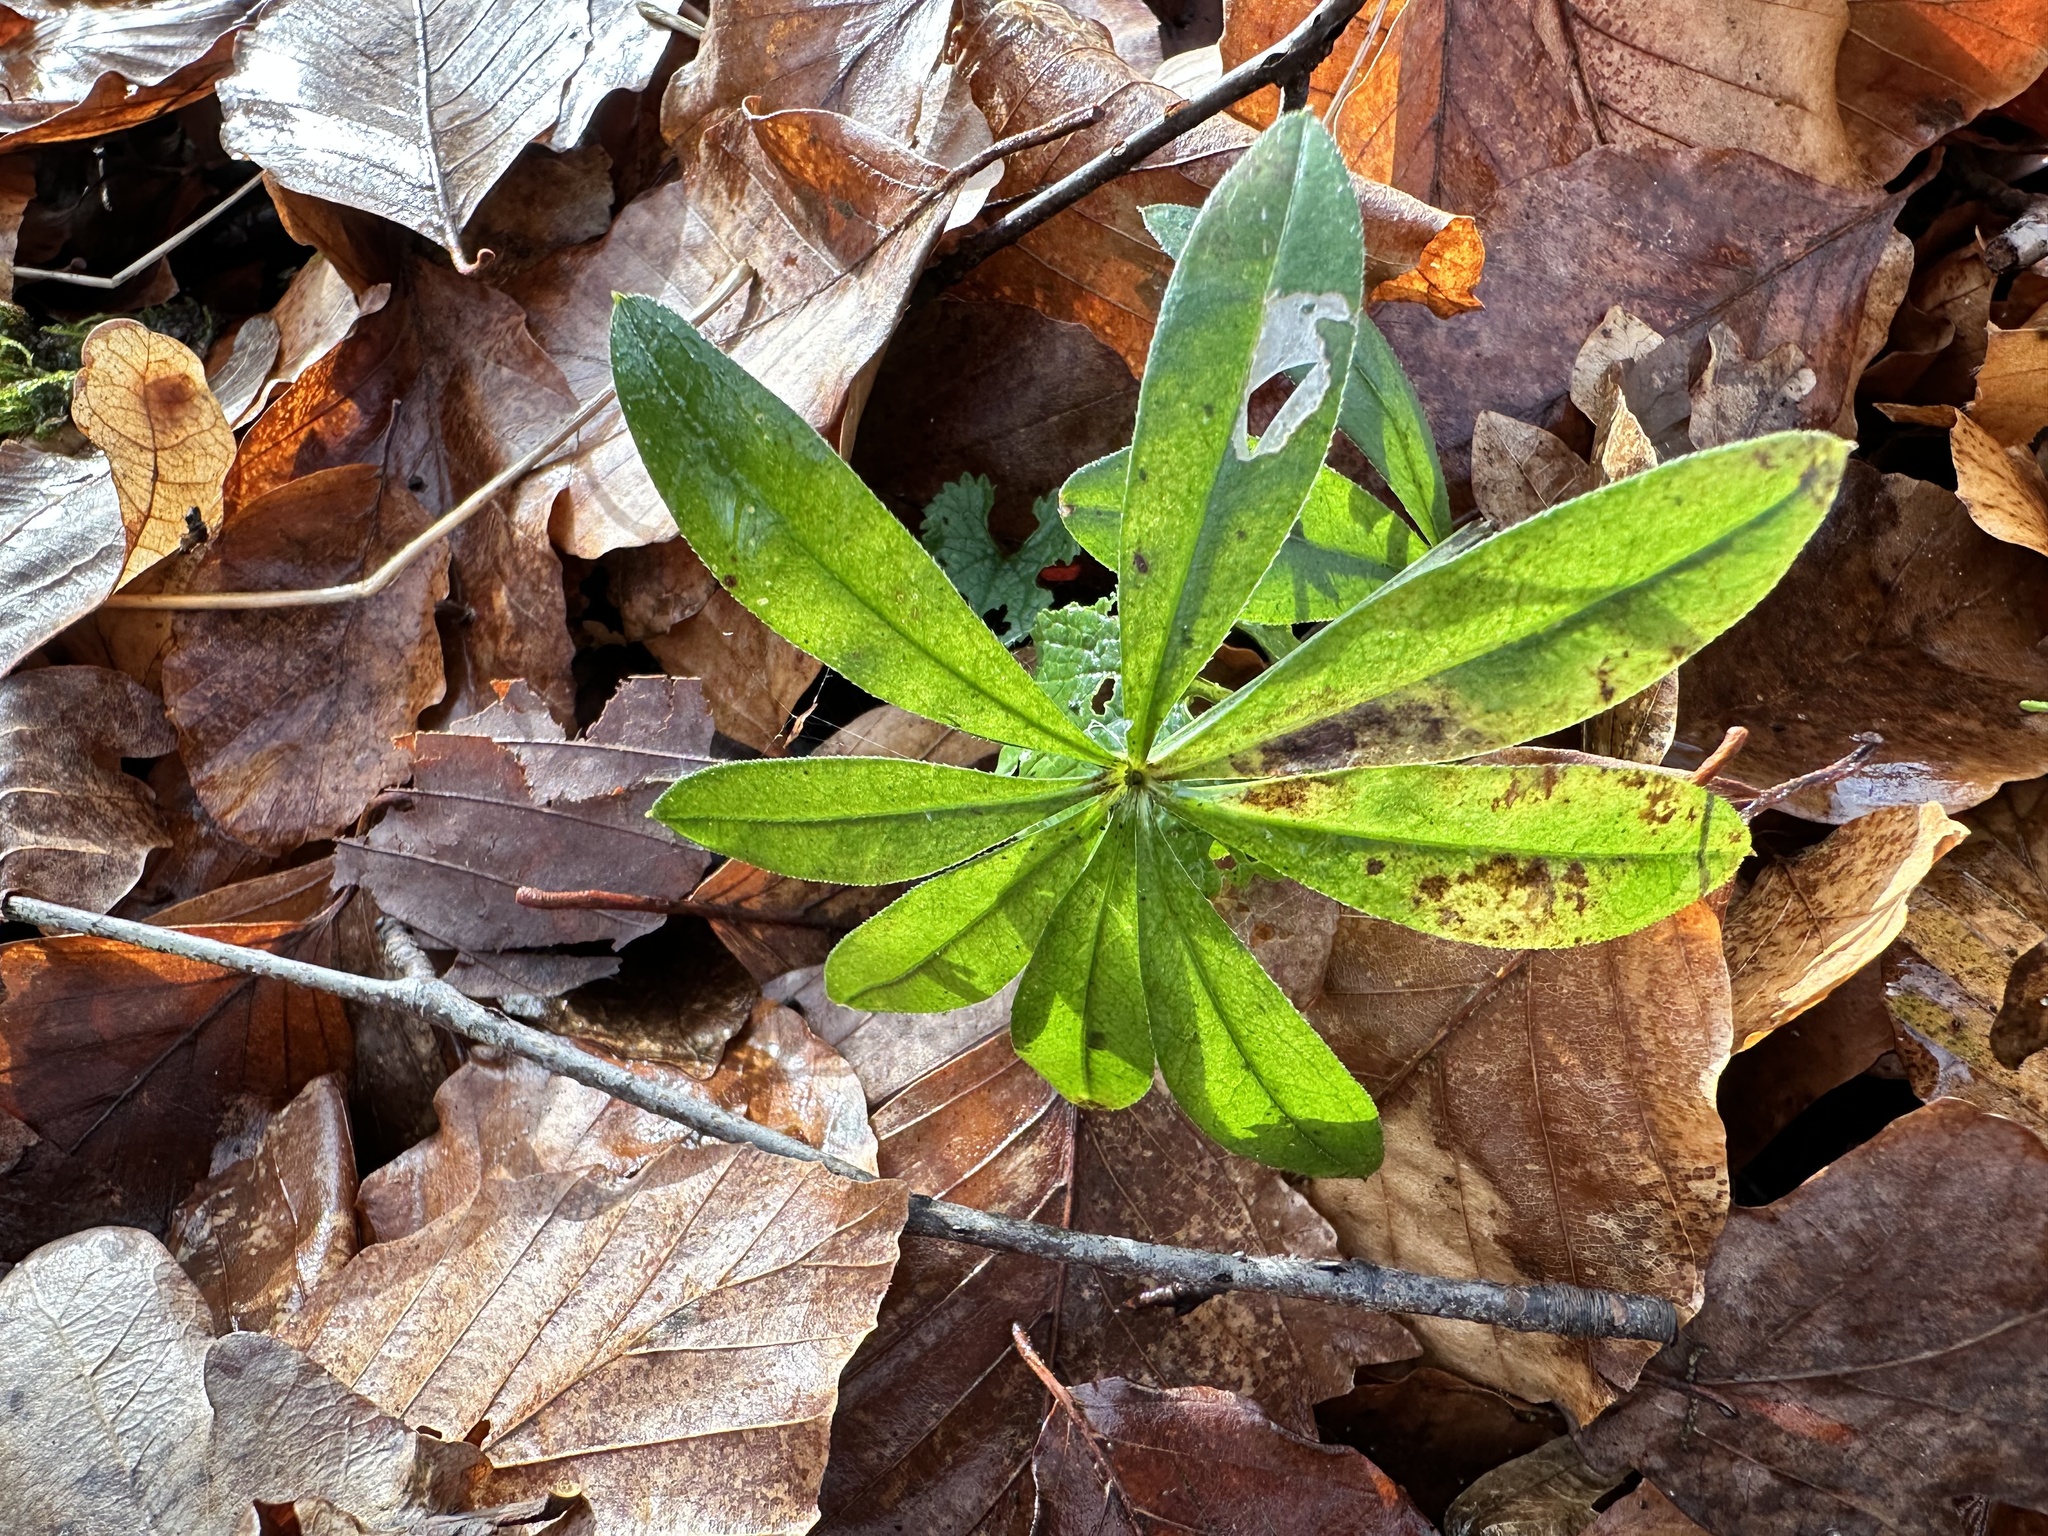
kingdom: Plantae
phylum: Tracheophyta
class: Magnoliopsida
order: Gentianales
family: Rubiaceae
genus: Galium
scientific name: Galium odoratum
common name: Sweet woodruff
